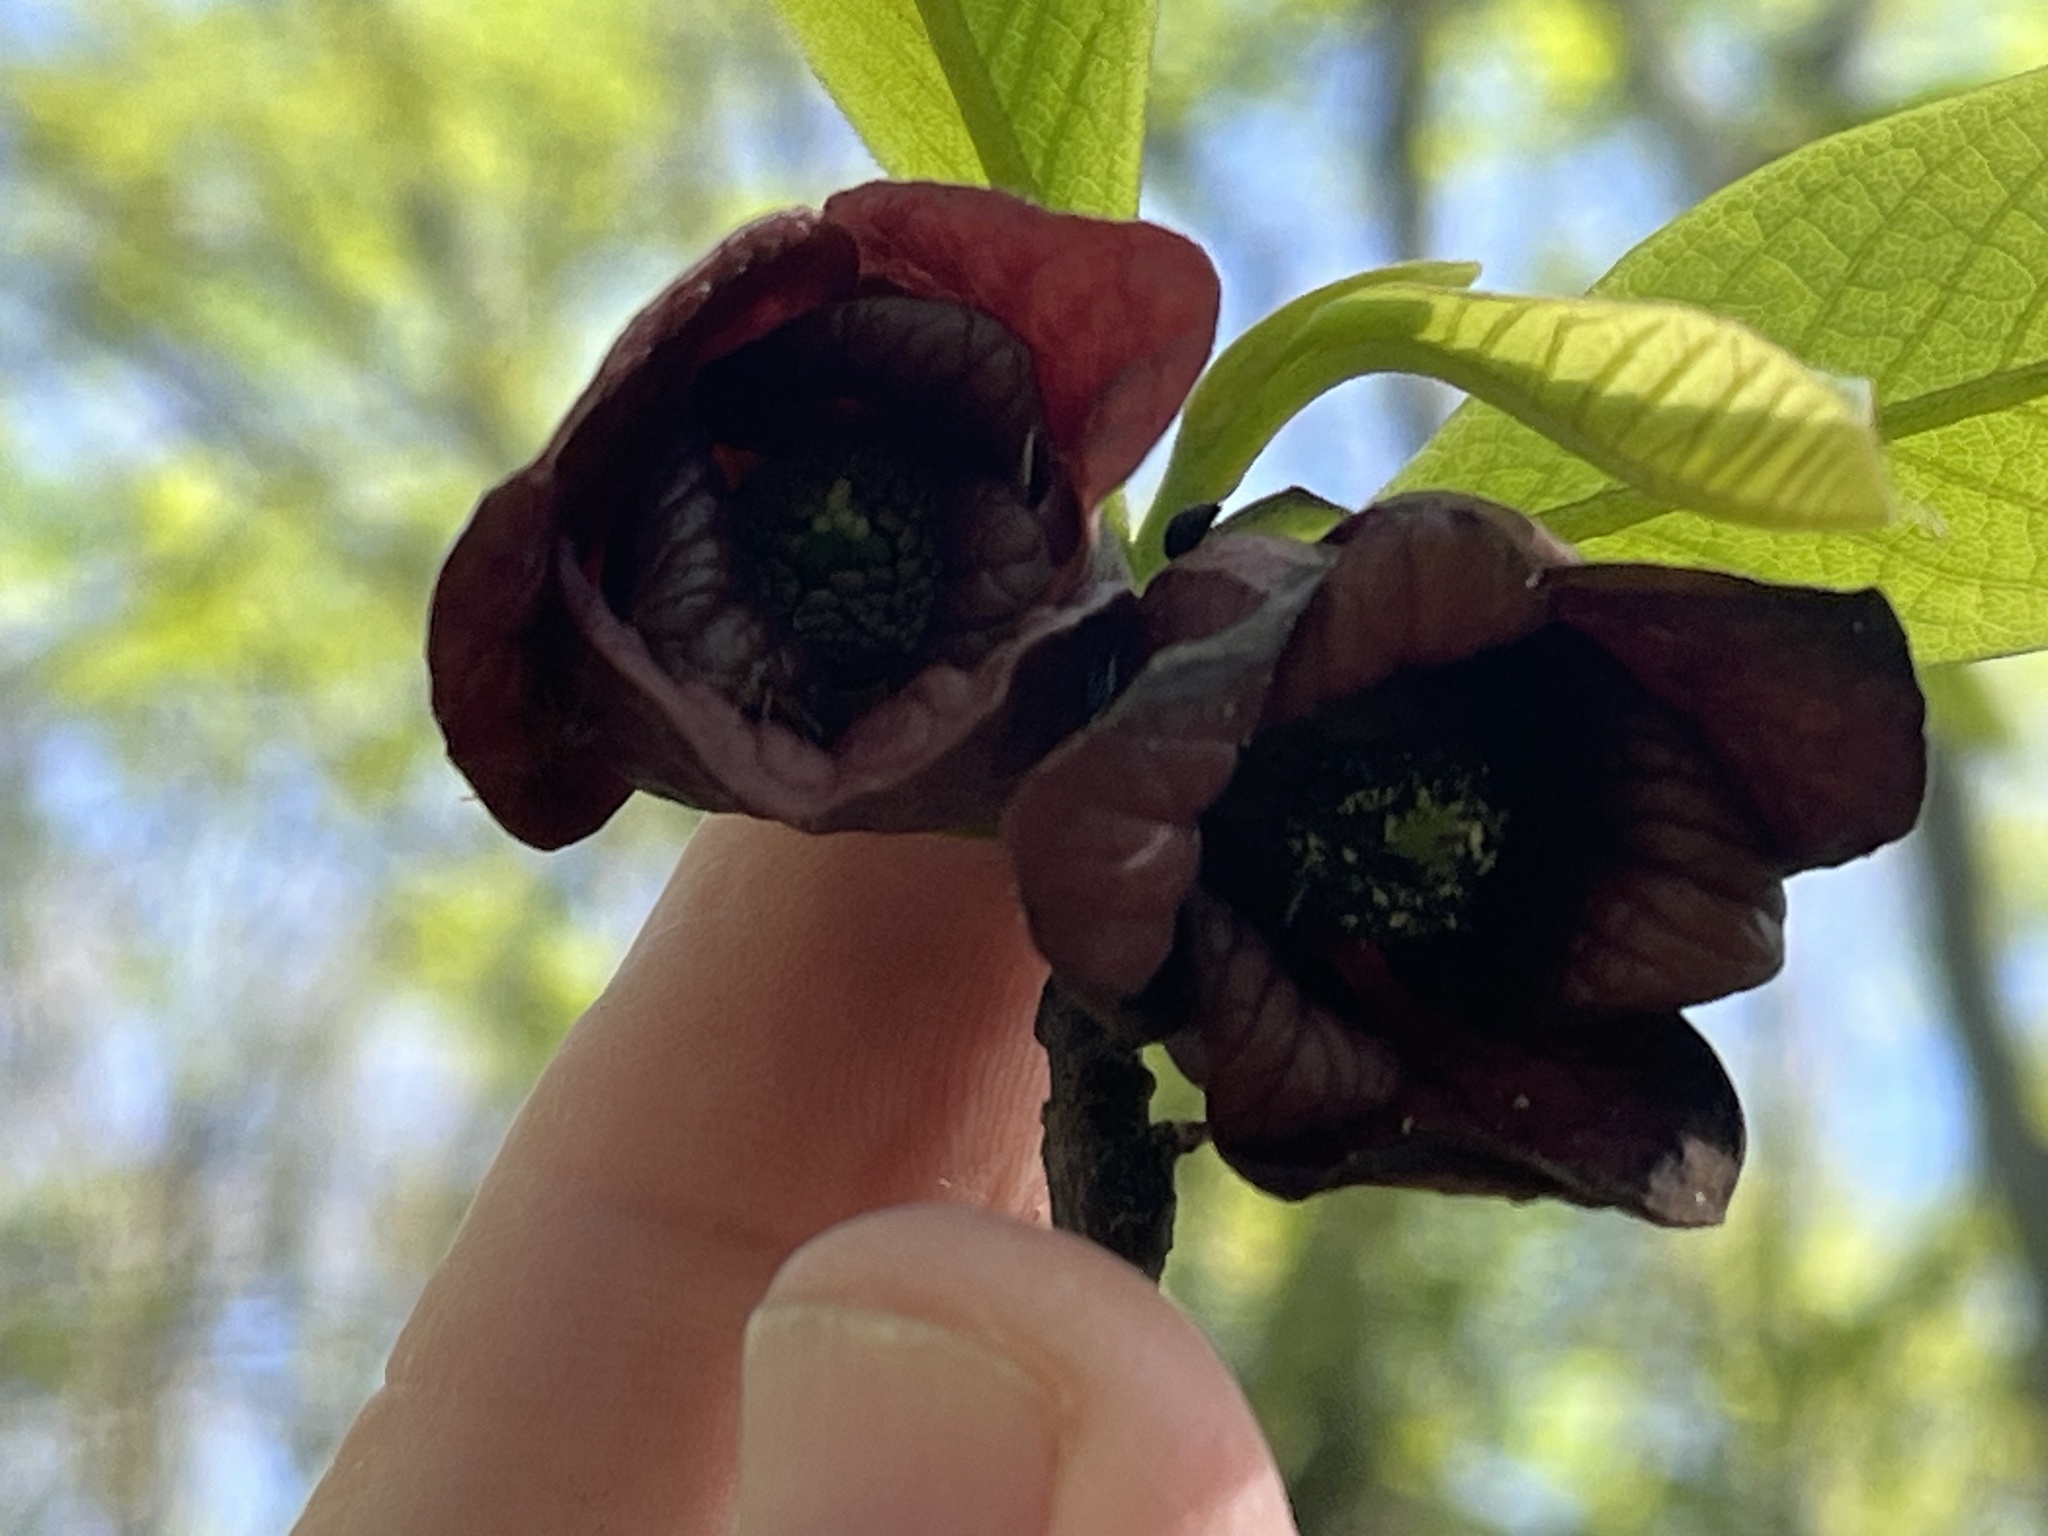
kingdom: Plantae
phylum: Tracheophyta
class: Magnoliopsida
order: Magnoliales
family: Annonaceae
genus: Asimina
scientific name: Asimina triloba
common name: Dog-banana
